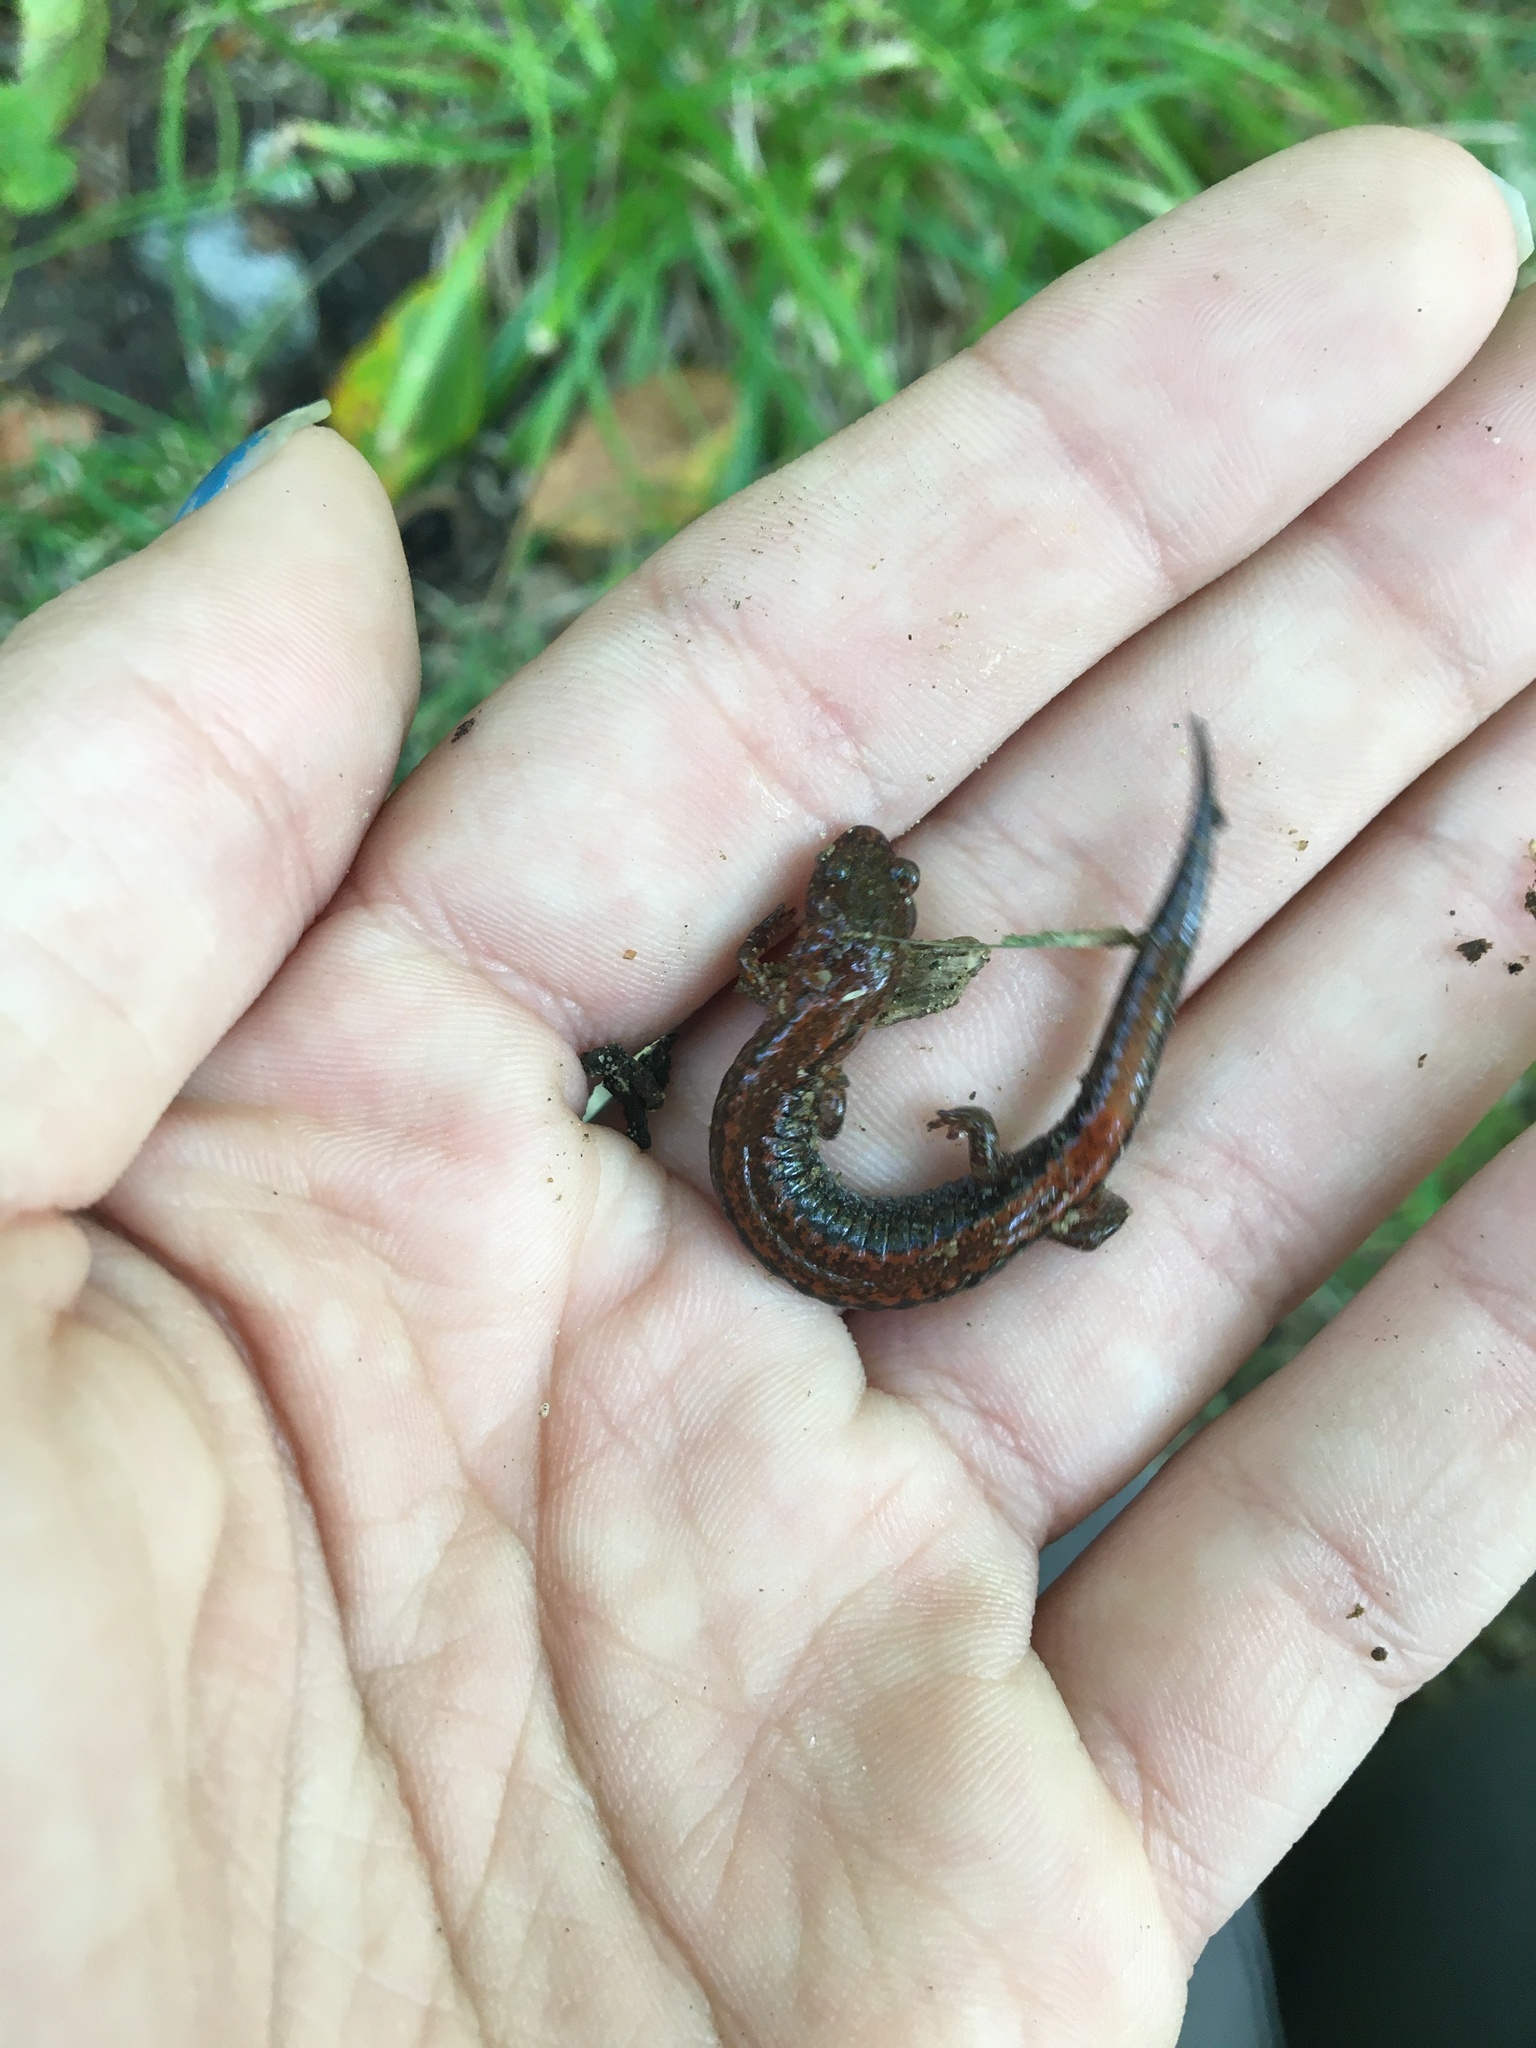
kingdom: Animalia
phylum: Chordata
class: Amphibia
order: Caudata
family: Plethodontidae
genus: Plethodon
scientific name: Plethodon cinereus
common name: Redback salamander
